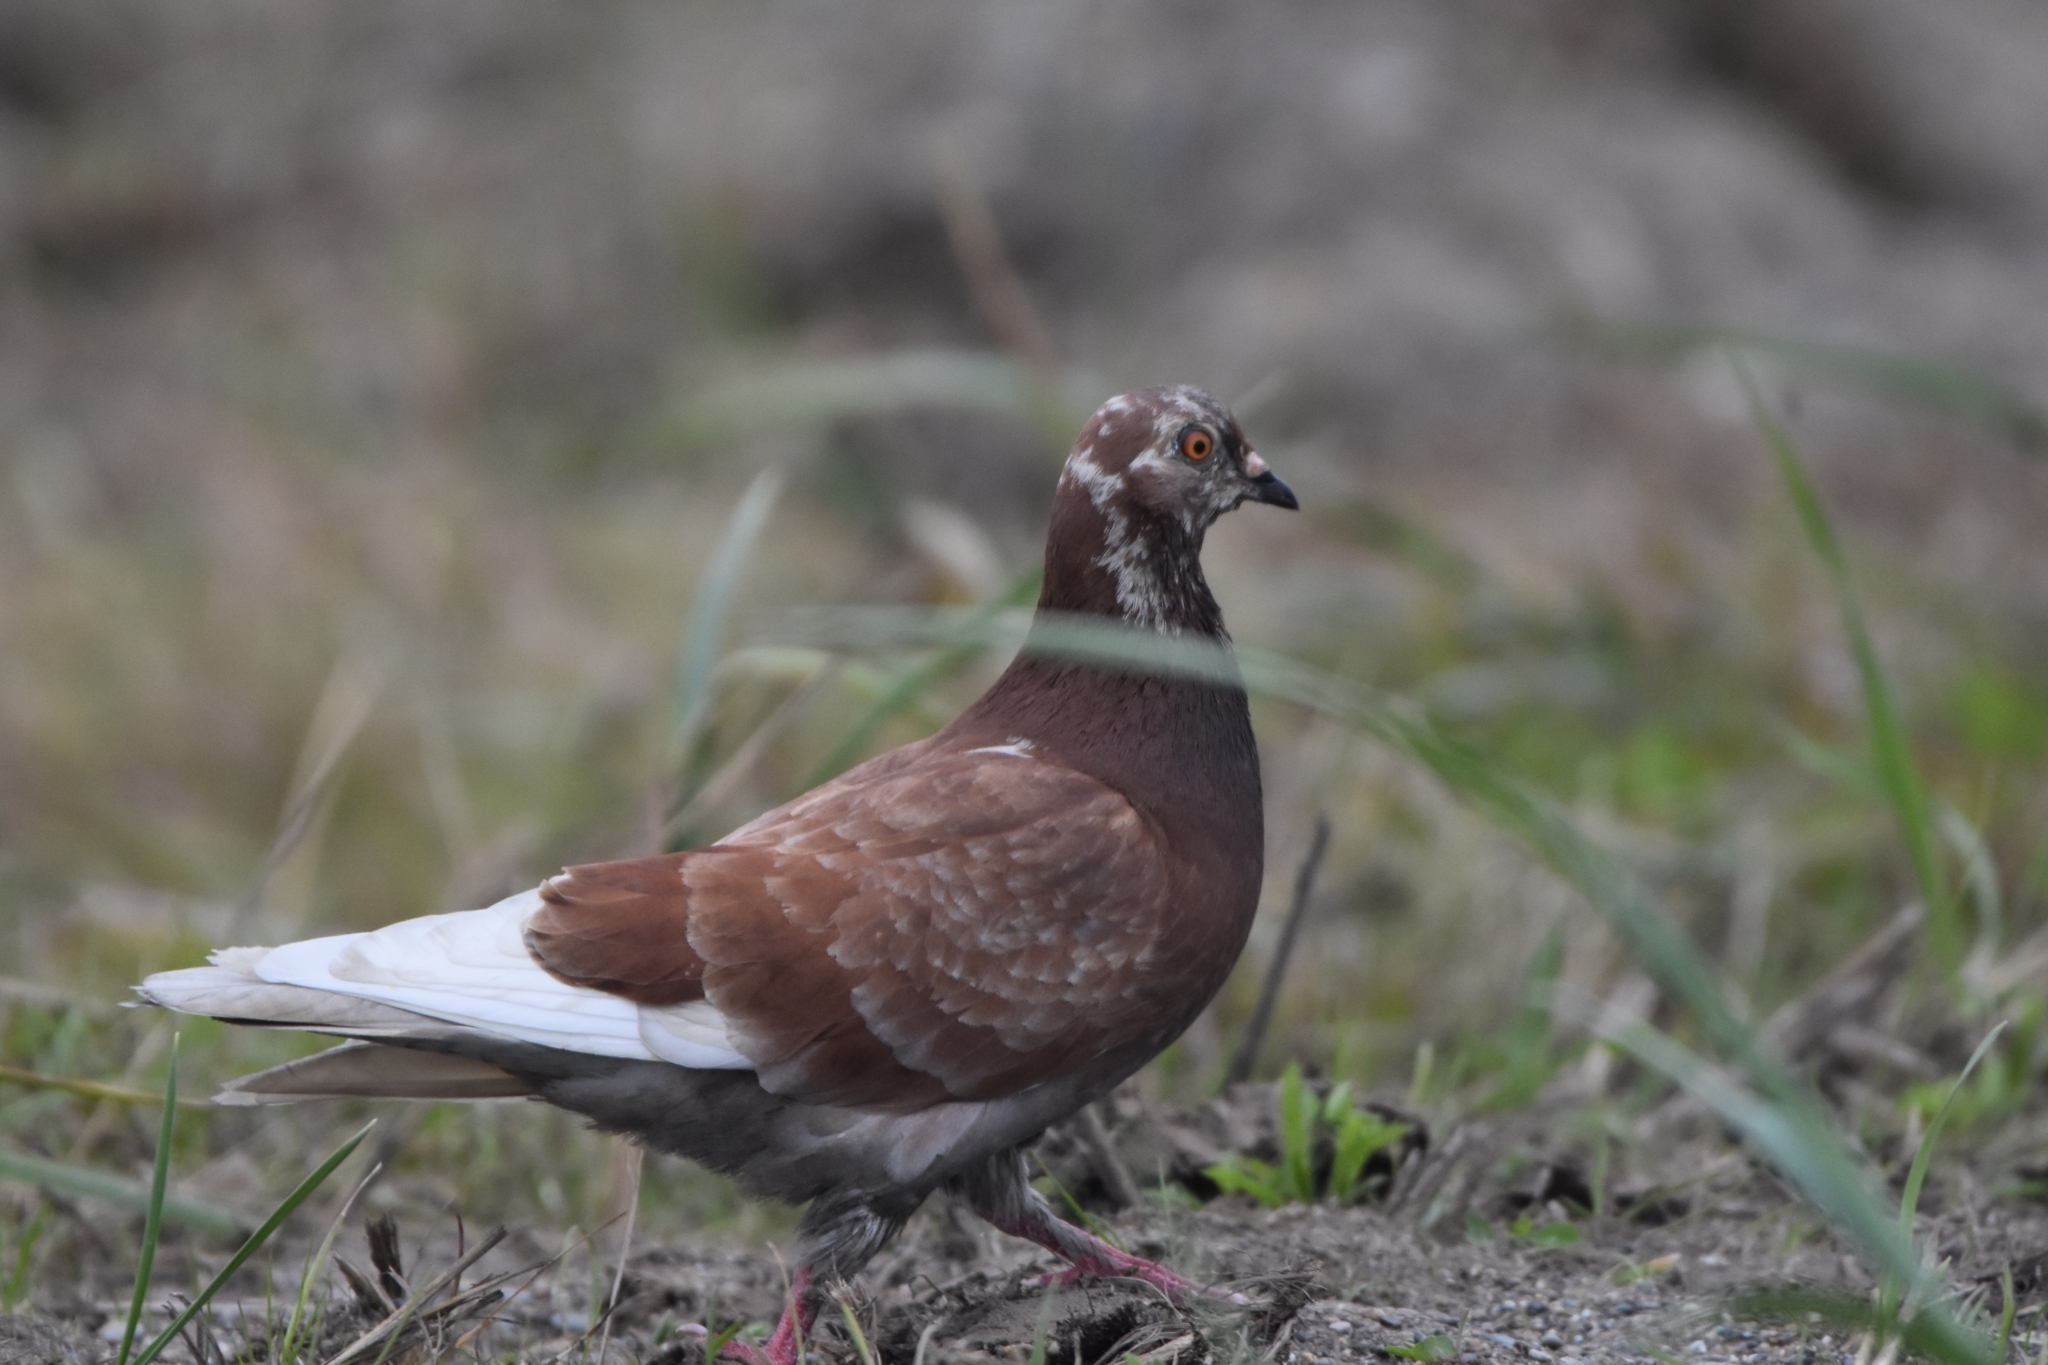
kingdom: Animalia
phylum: Chordata
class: Aves
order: Columbiformes
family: Columbidae
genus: Columba
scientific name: Columba livia
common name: Rock pigeon
